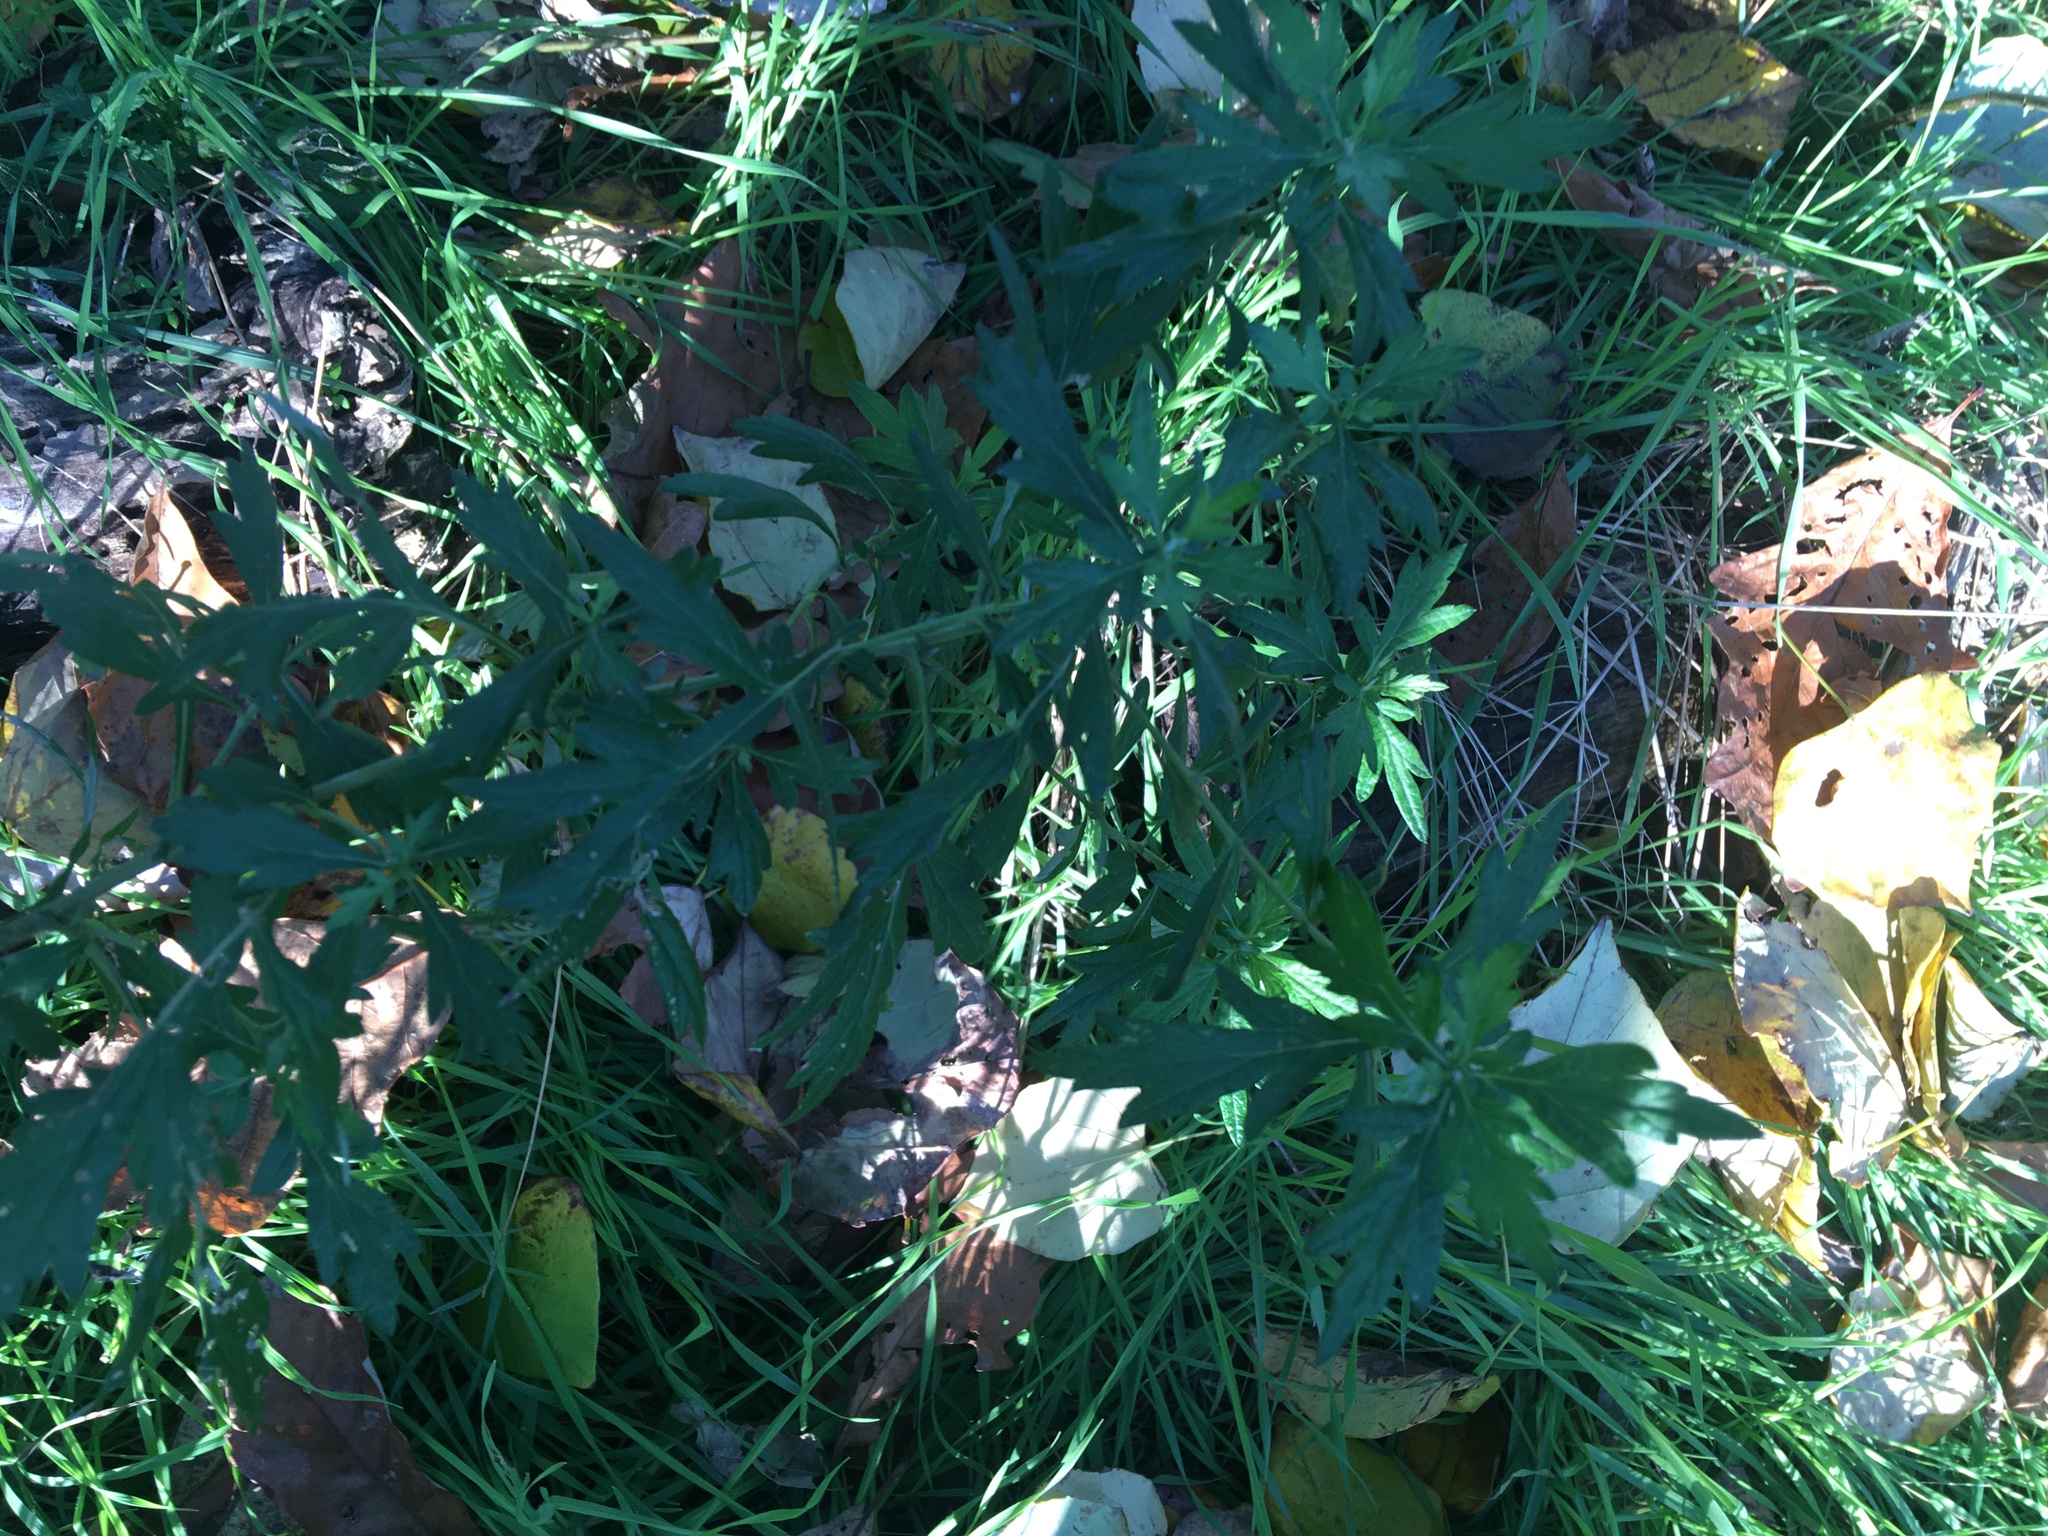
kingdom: Plantae
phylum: Tracheophyta
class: Magnoliopsida
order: Asterales
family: Asteraceae
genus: Artemisia
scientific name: Artemisia vulgaris
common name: Mugwort
